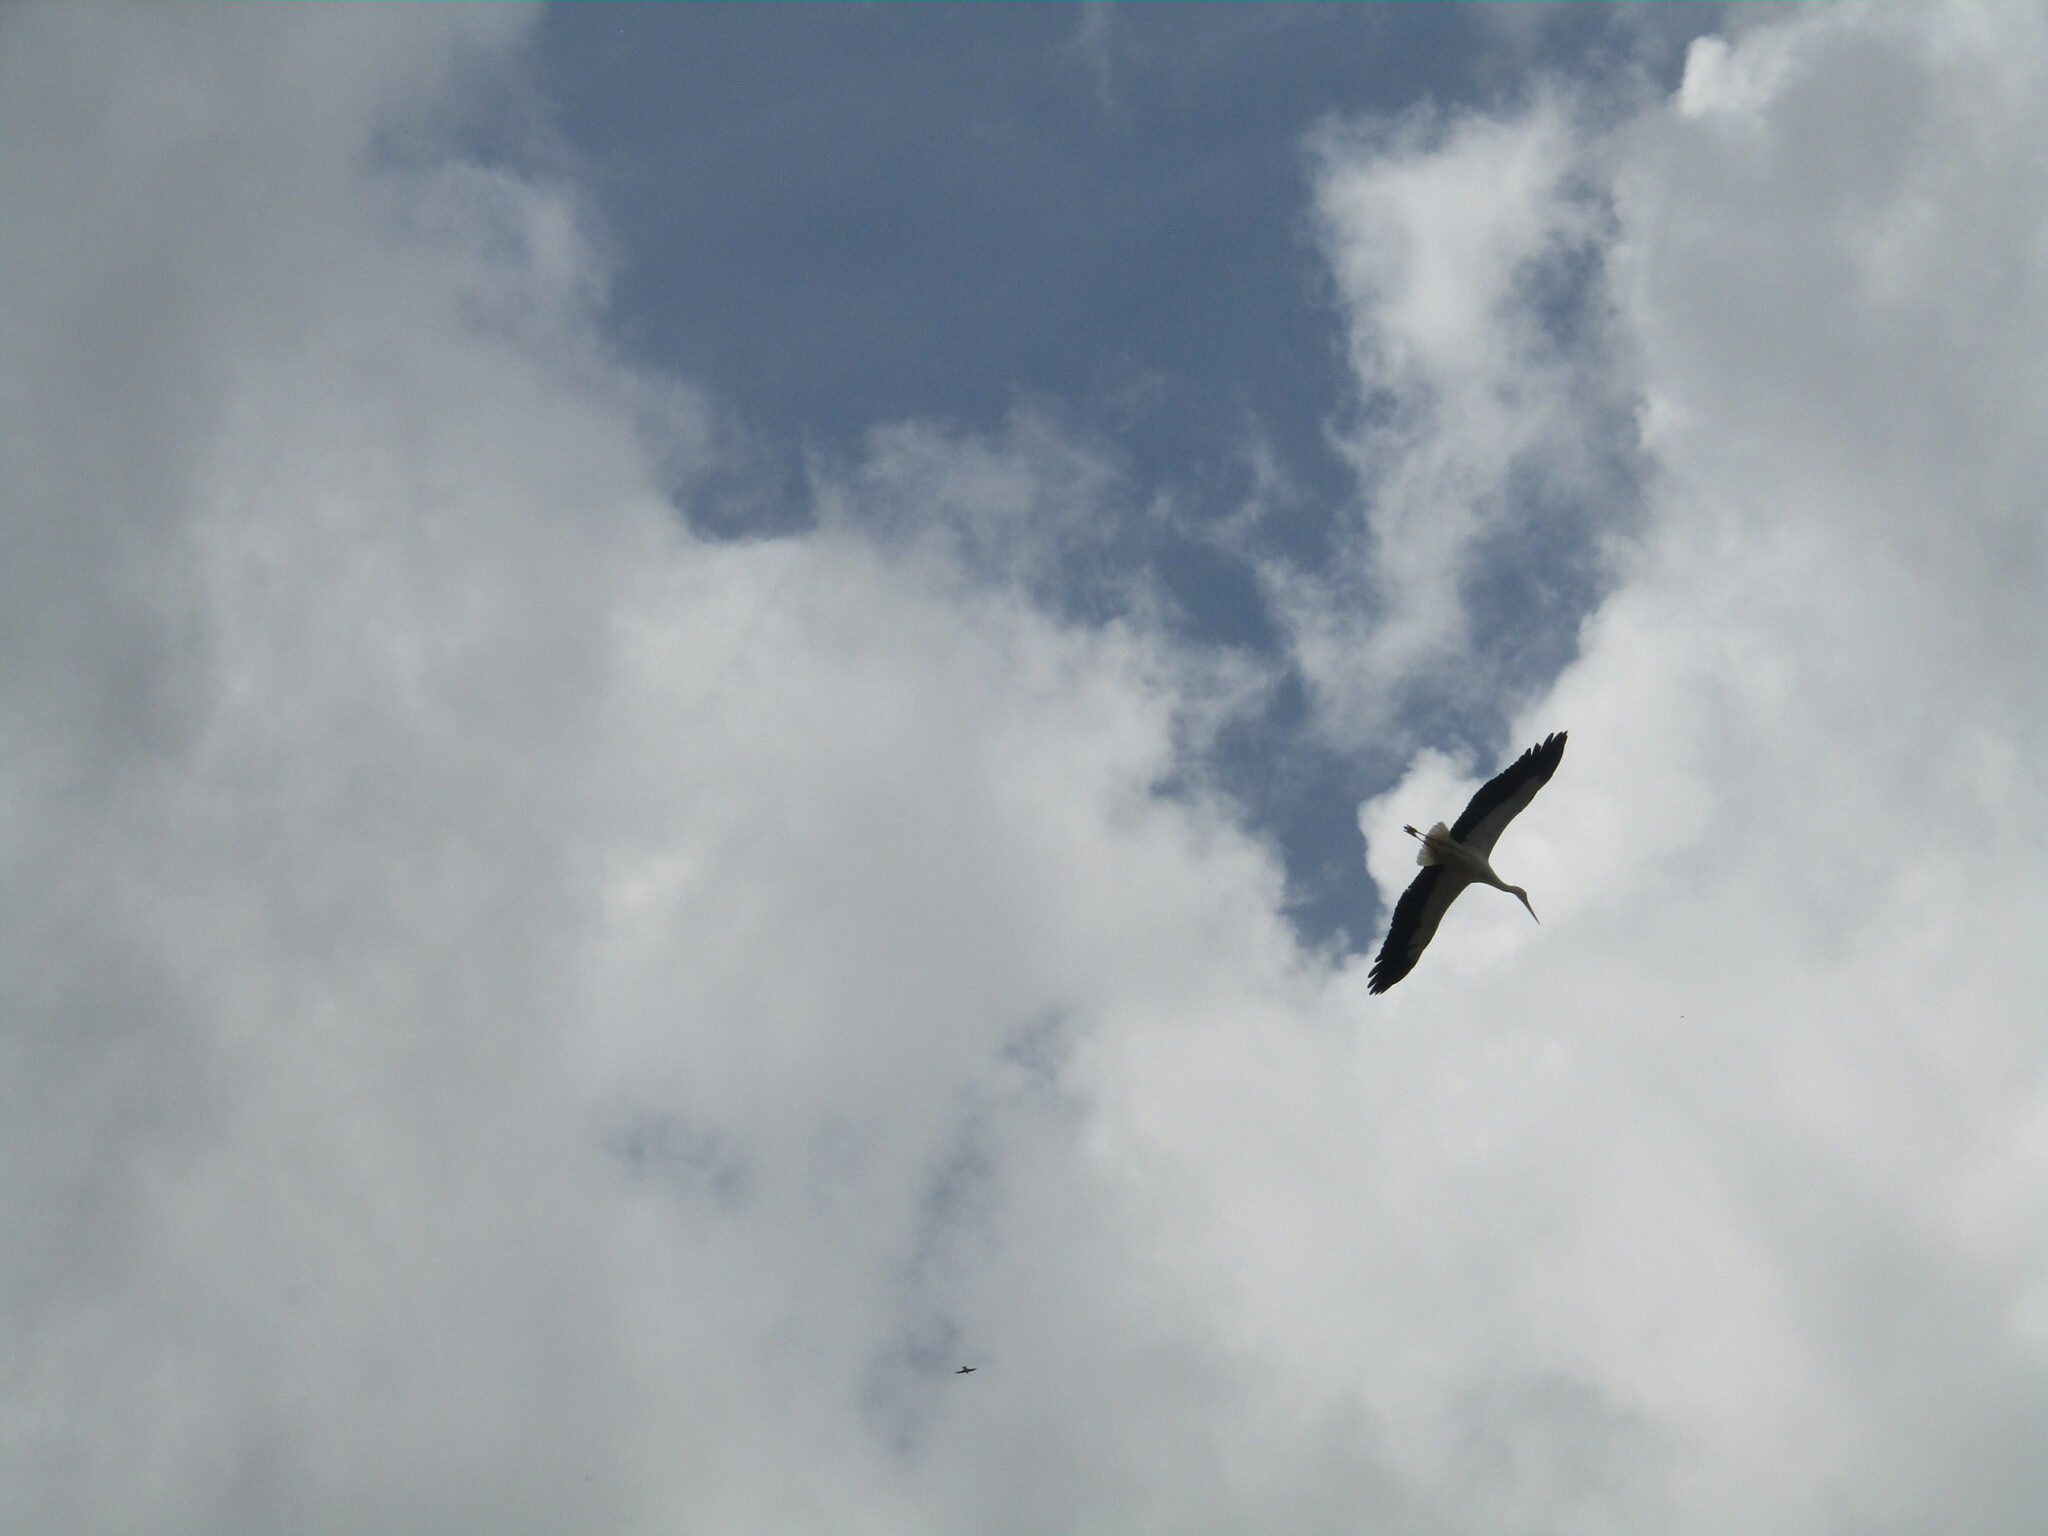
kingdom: Animalia
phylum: Chordata
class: Aves
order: Ciconiiformes
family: Ciconiidae
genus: Ciconia
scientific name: Ciconia ciconia
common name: White stork
